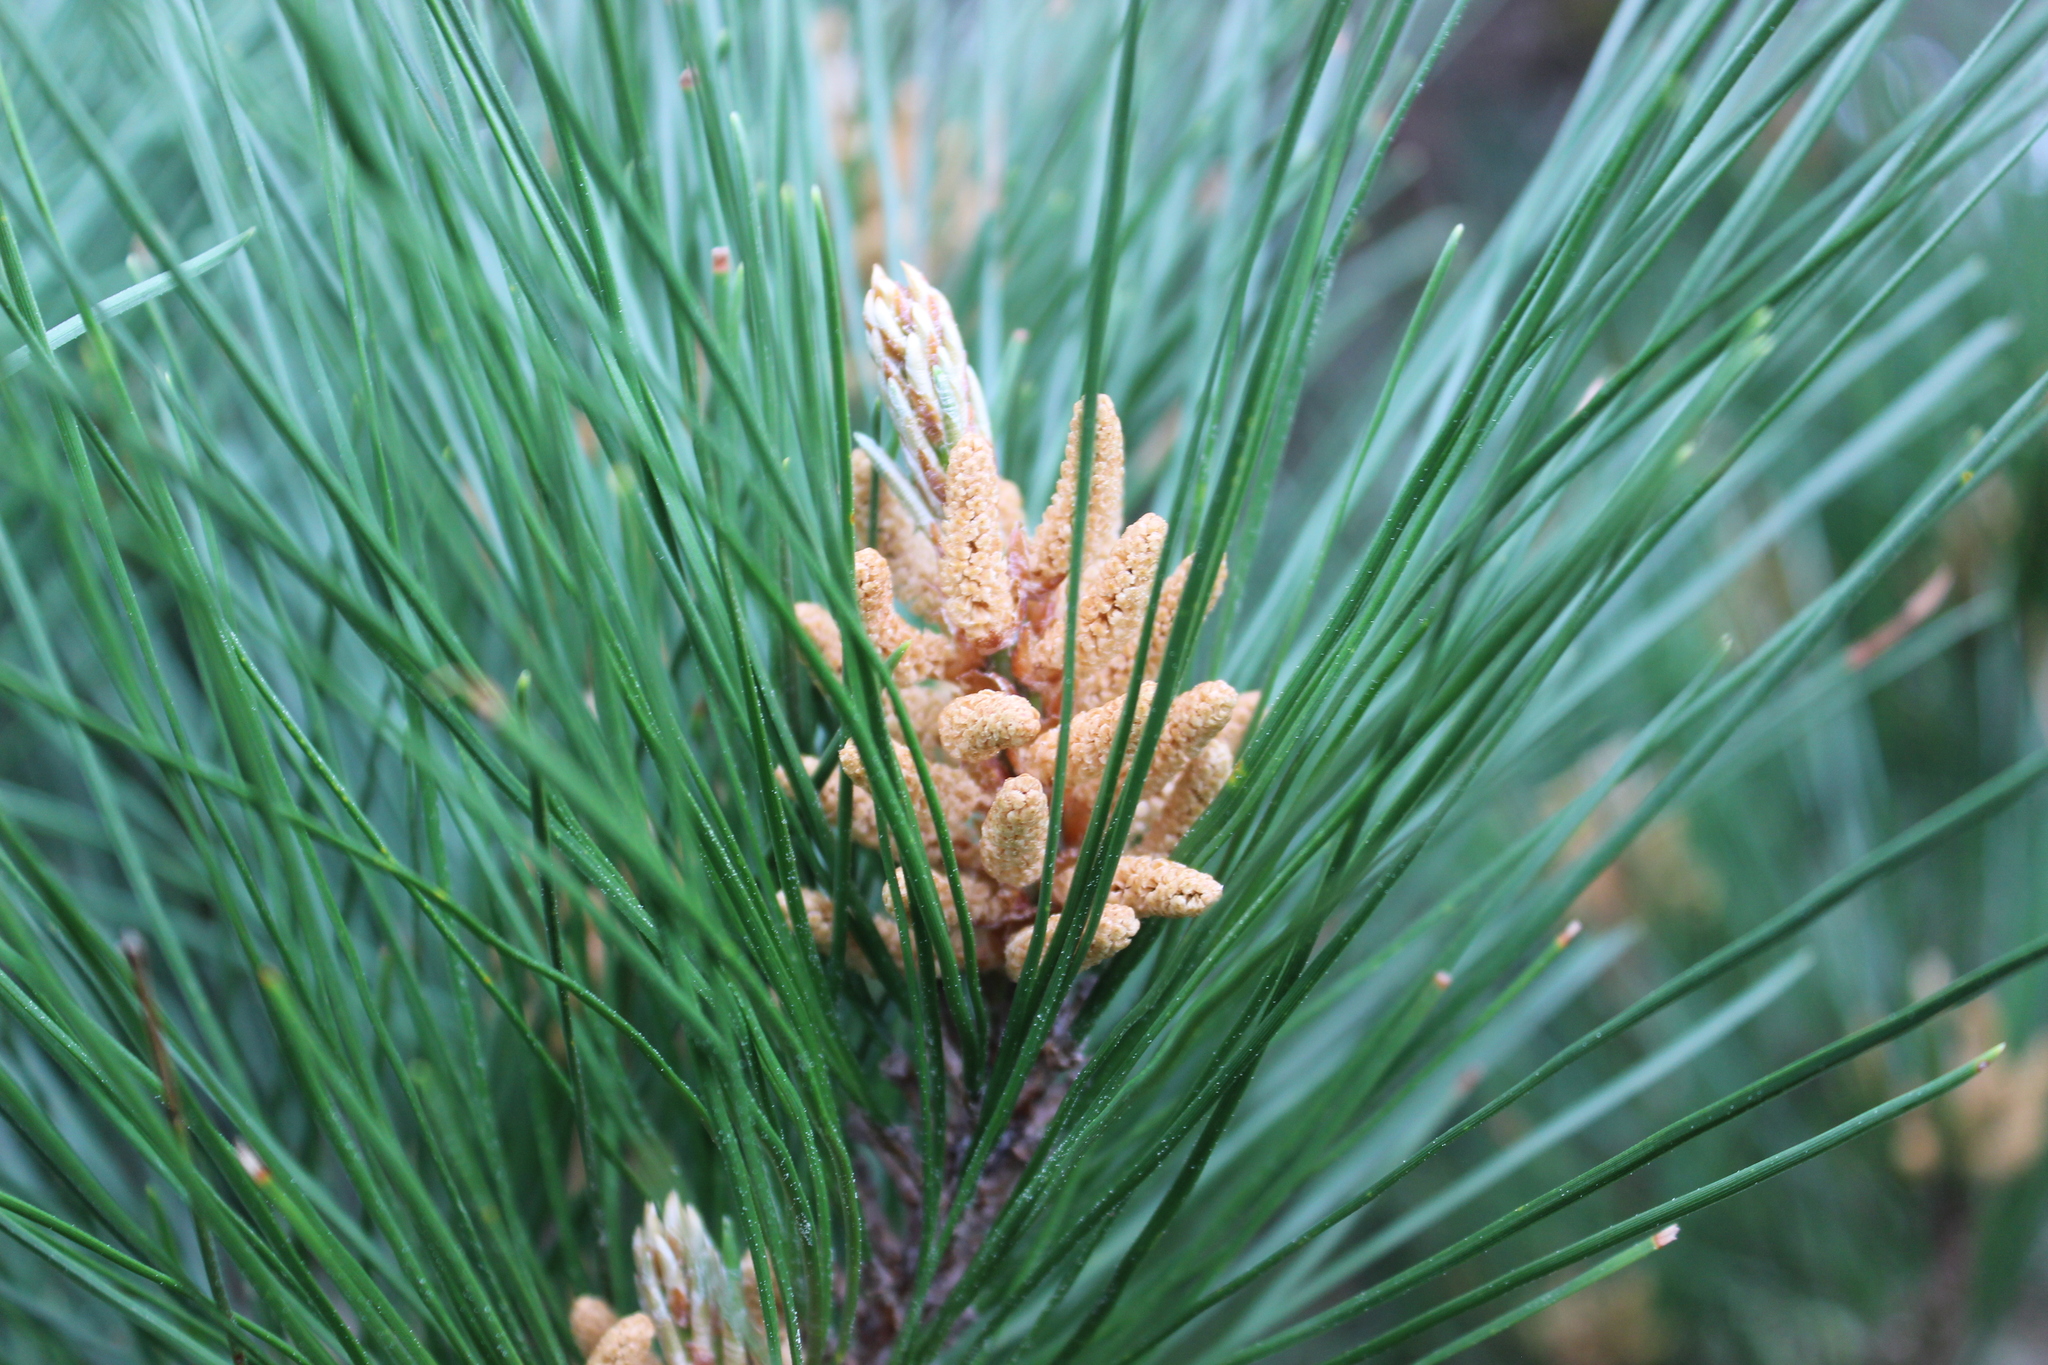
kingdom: Plantae
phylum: Tracheophyta
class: Pinopsida
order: Pinales
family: Pinaceae
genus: Pinus
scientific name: Pinus radiata
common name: Monterey pine
